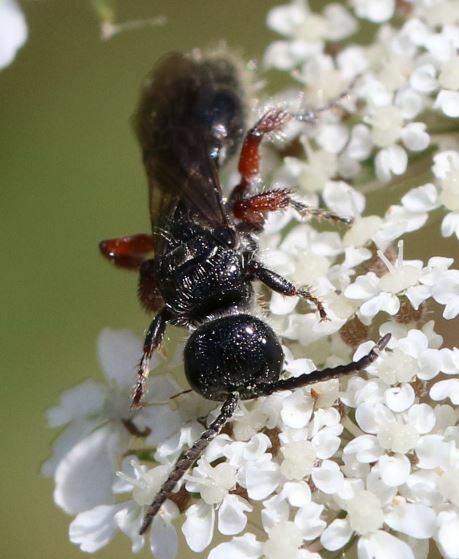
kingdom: Animalia
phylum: Arthropoda
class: Insecta
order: Hymenoptera
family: Tiphiidae
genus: Tiphia
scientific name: Tiphia femorata
